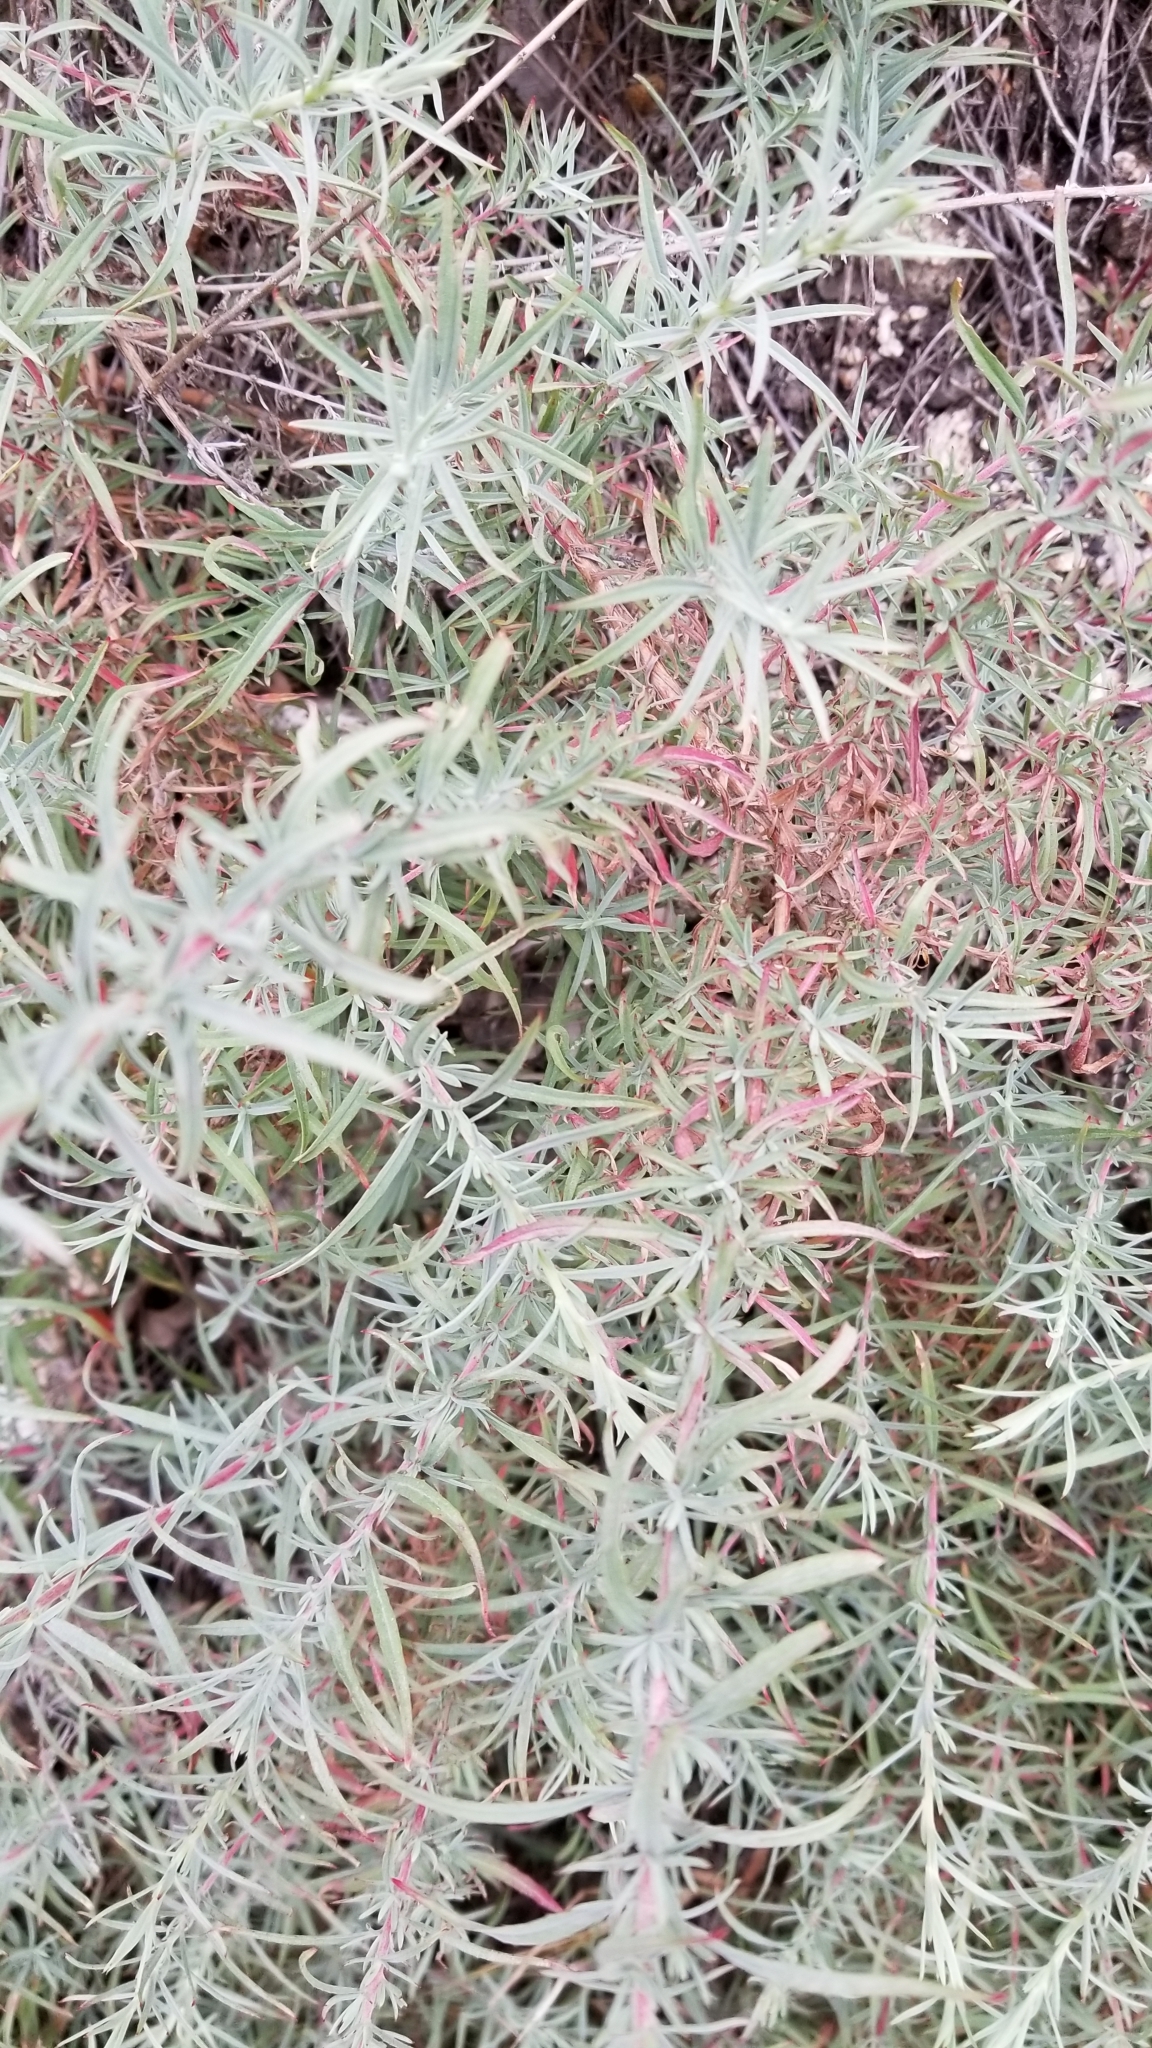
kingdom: Plantae
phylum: Tracheophyta
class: Magnoliopsida
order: Myrtales
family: Onagraceae
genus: Epilobium
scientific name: Epilobium canum
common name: California-fuchsia
